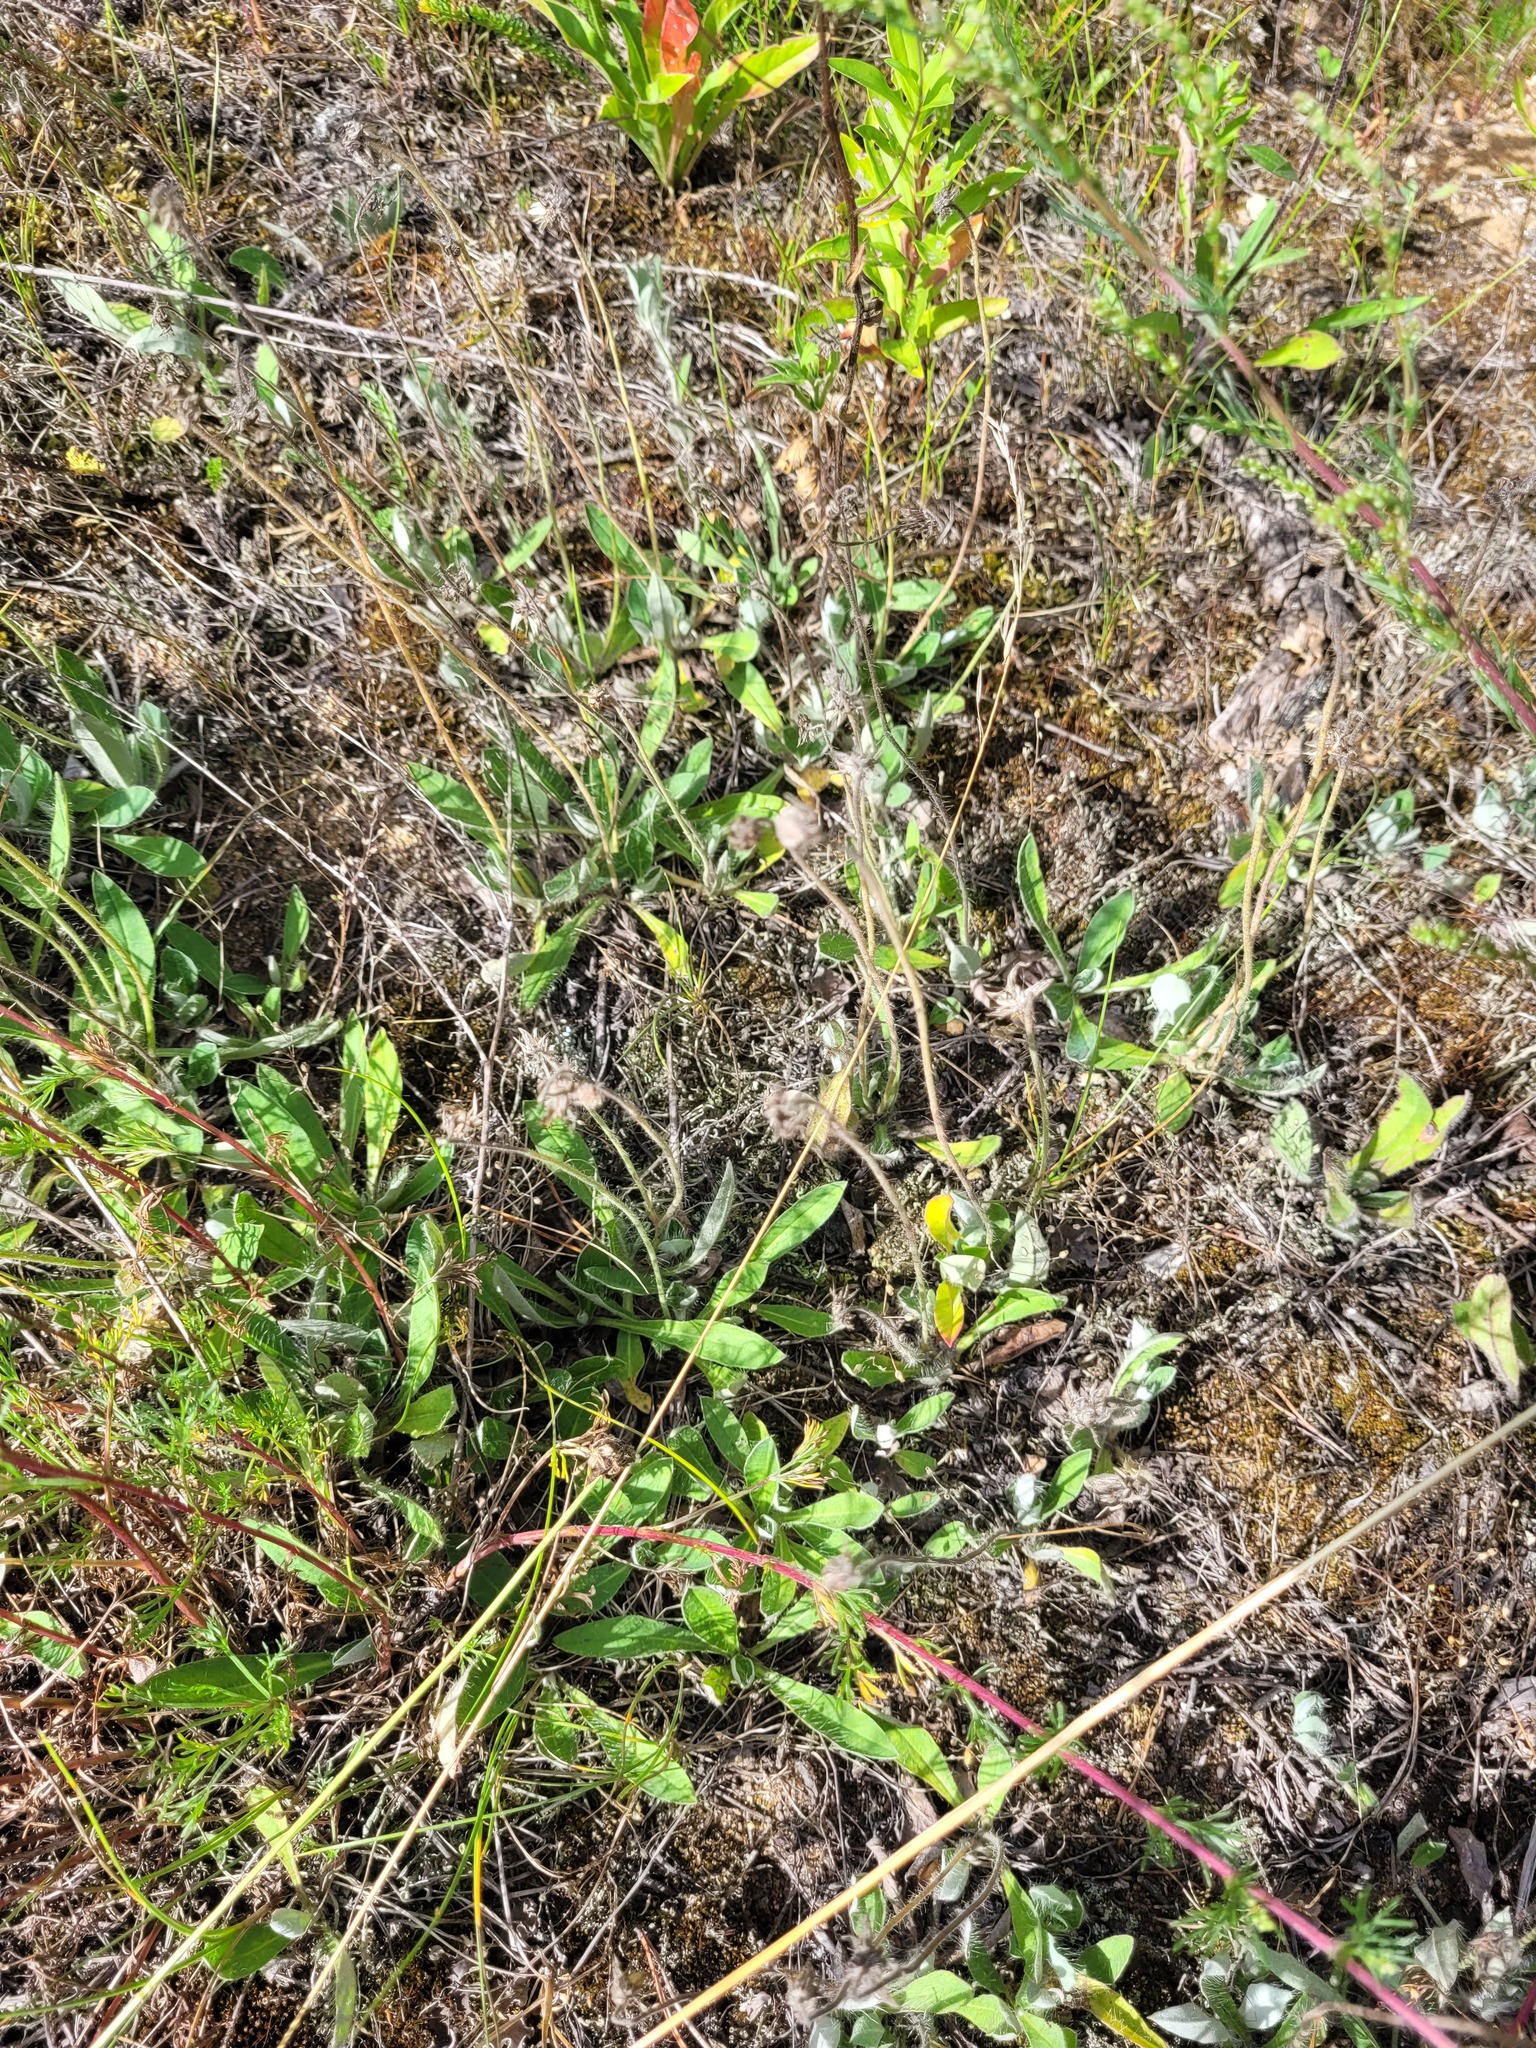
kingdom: Plantae
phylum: Tracheophyta
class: Magnoliopsida
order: Asterales
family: Asteraceae
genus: Pilosella
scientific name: Pilosella officinarum
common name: Mouse-ear hawkweed
